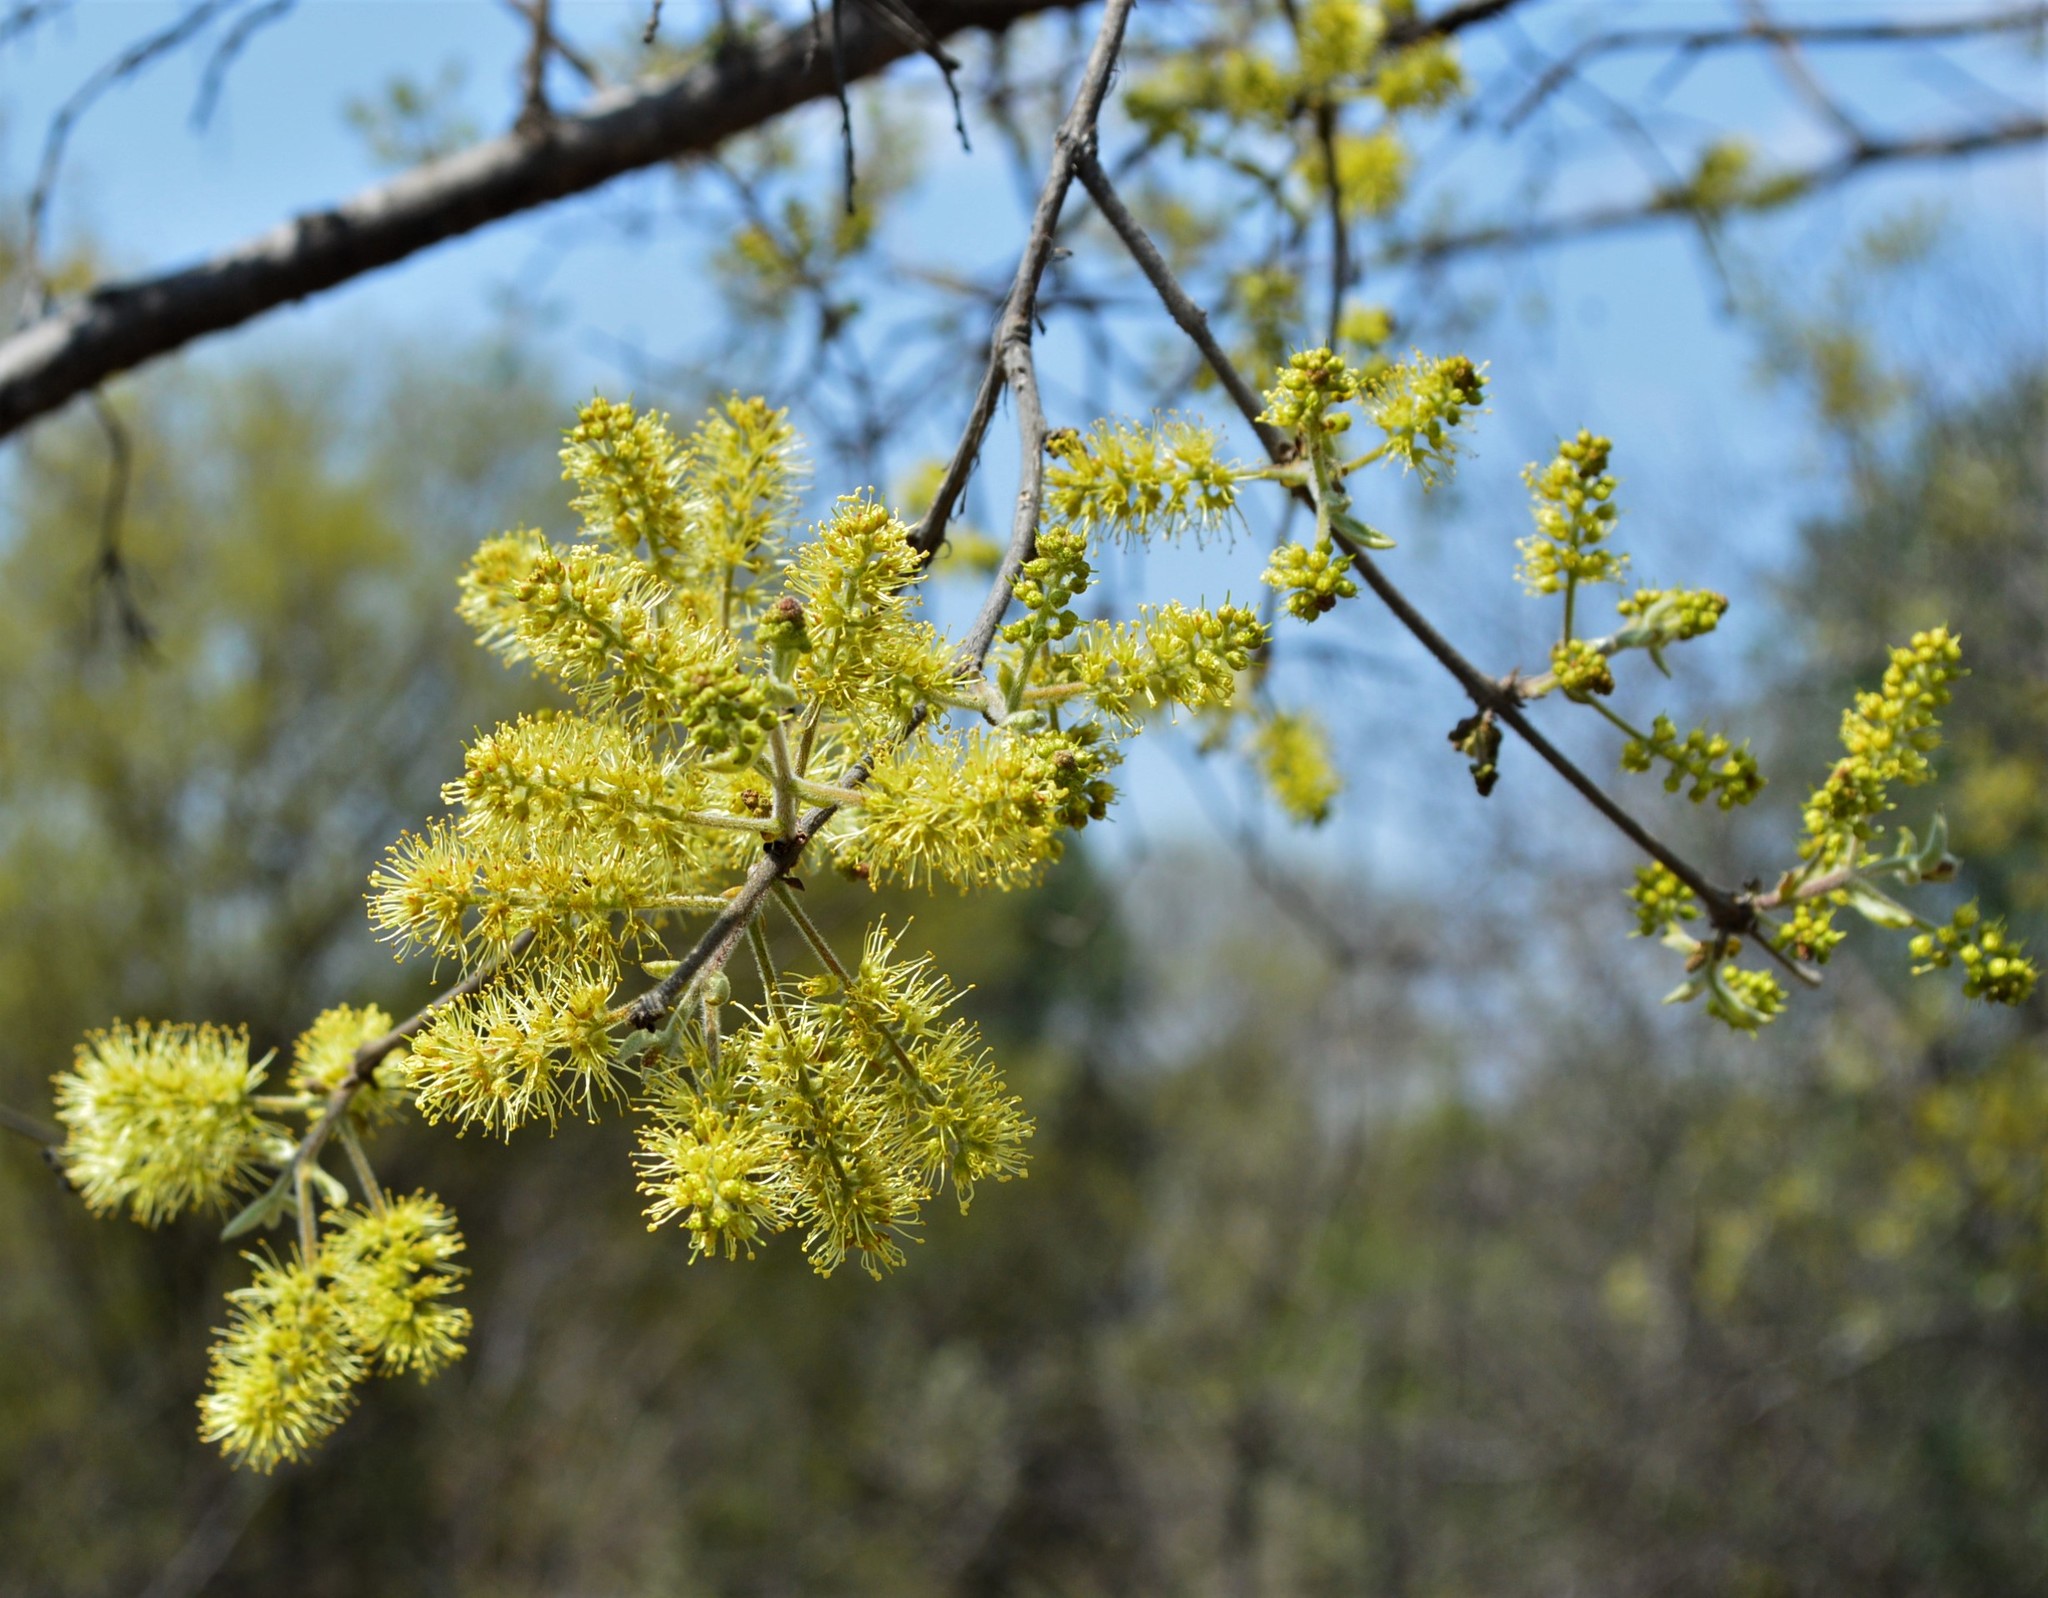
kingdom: Plantae
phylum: Tracheophyta
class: Magnoliopsida
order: Myrtales
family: Combretaceae
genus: Combretum
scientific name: Combretum molle
